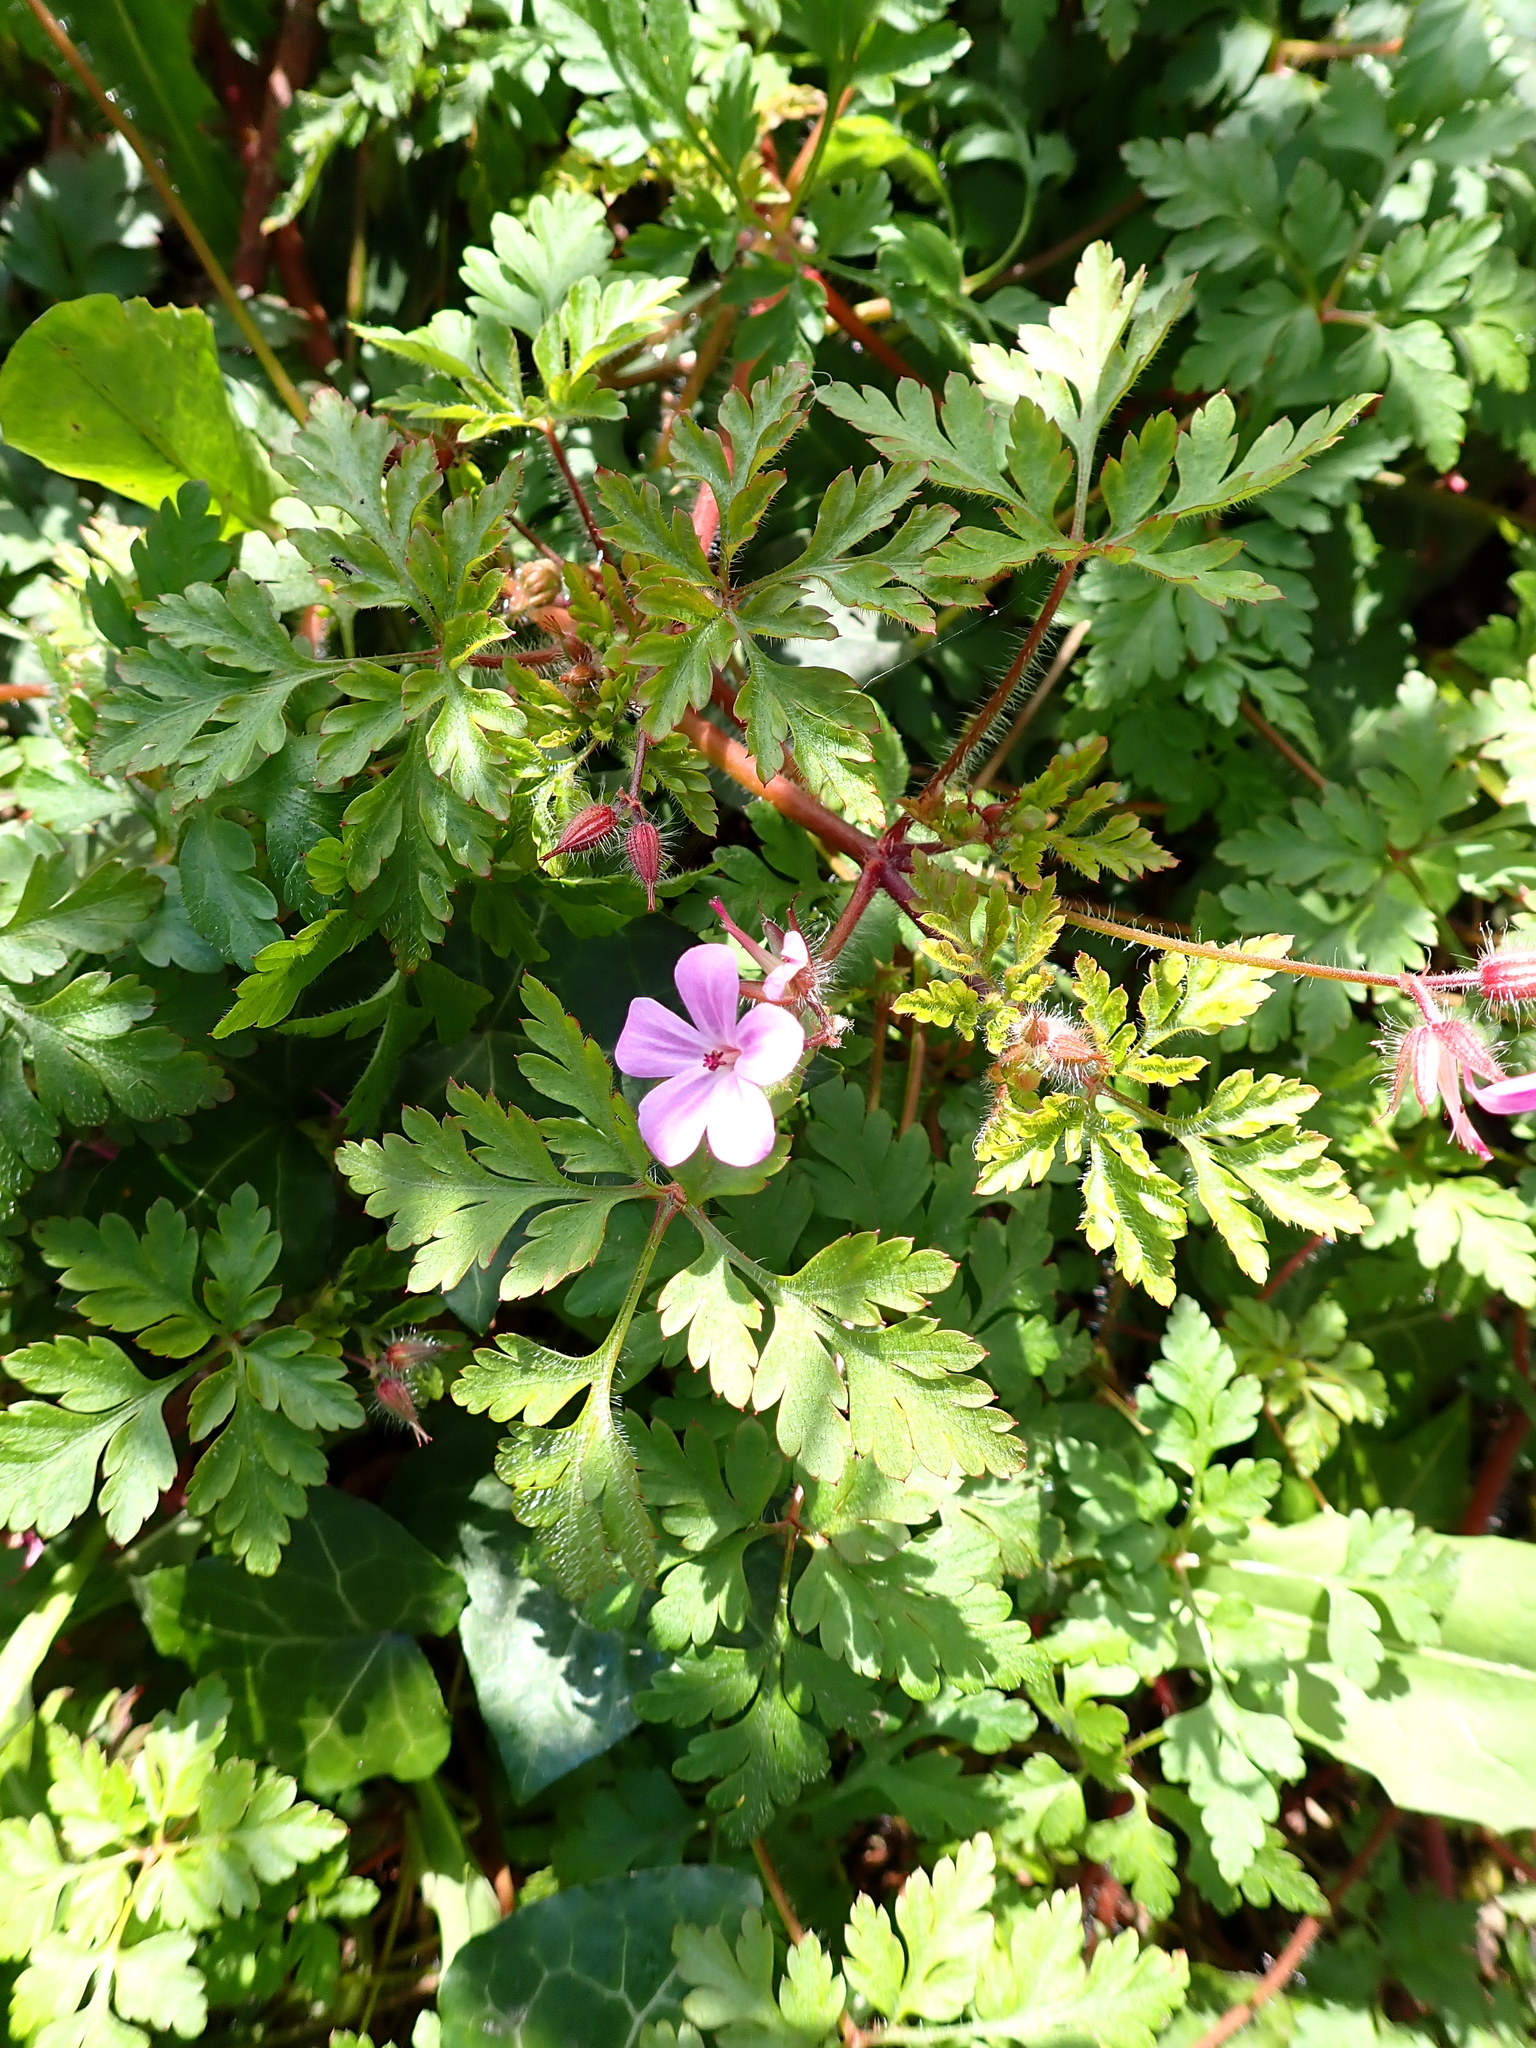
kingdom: Plantae
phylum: Tracheophyta
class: Magnoliopsida
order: Geraniales
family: Geraniaceae
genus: Geranium
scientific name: Geranium robertianum
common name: Herb-robert
